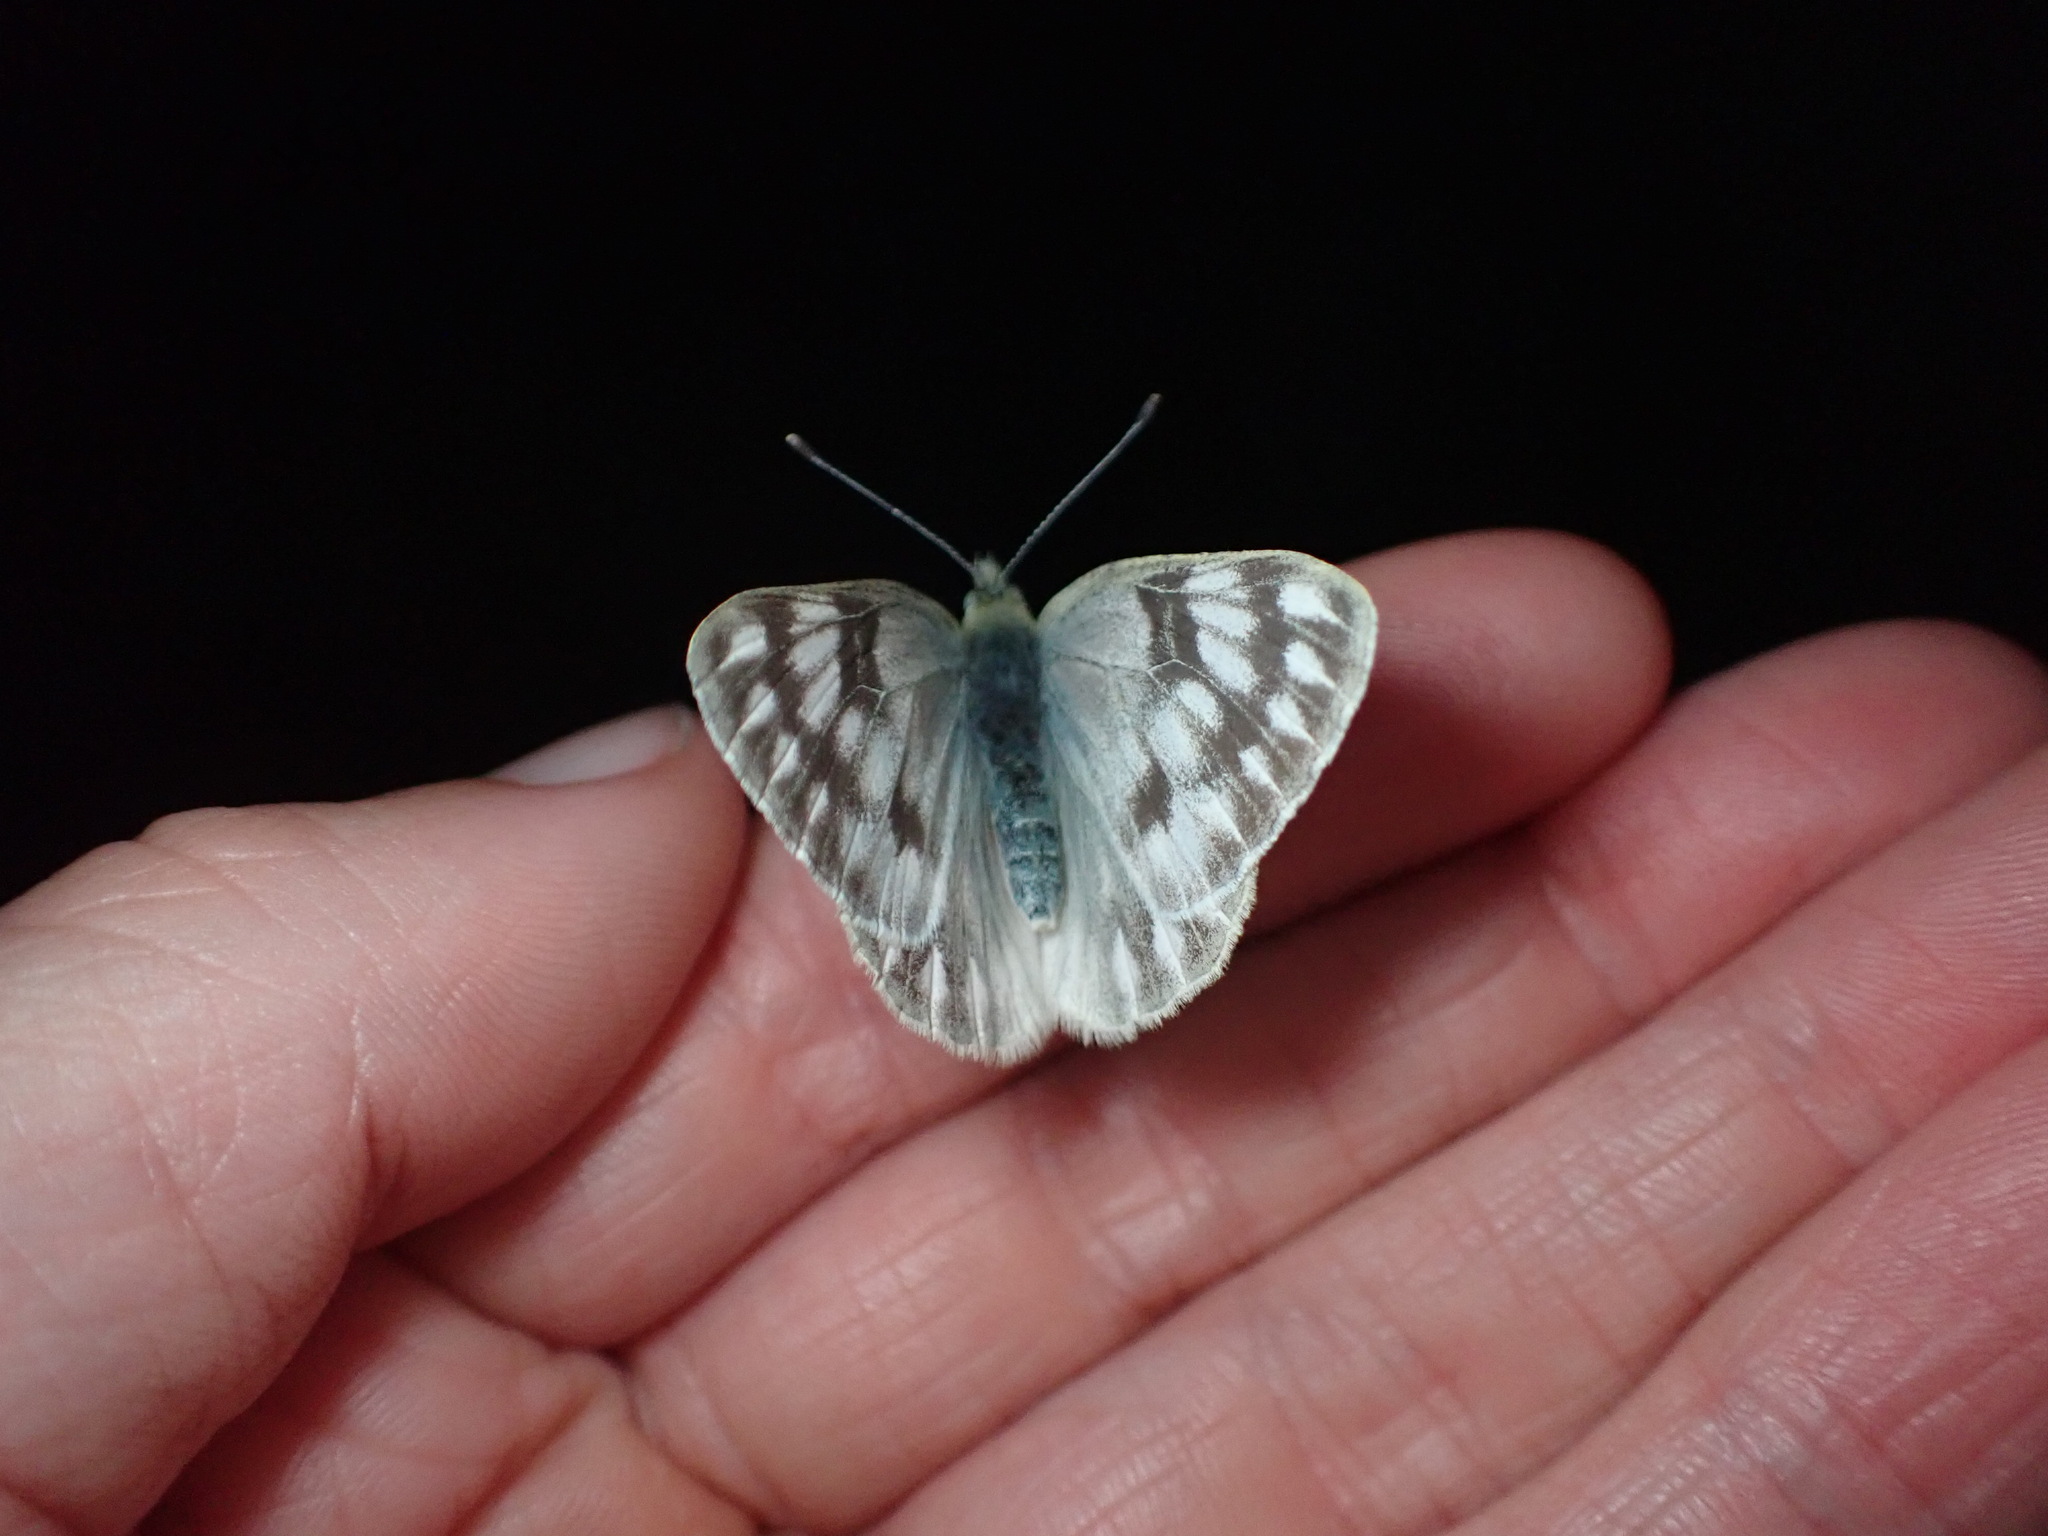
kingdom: Animalia
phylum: Arthropoda
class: Insecta
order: Lepidoptera
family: Pieridae
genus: Pontia
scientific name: Pontia occidentalis
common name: Western white
